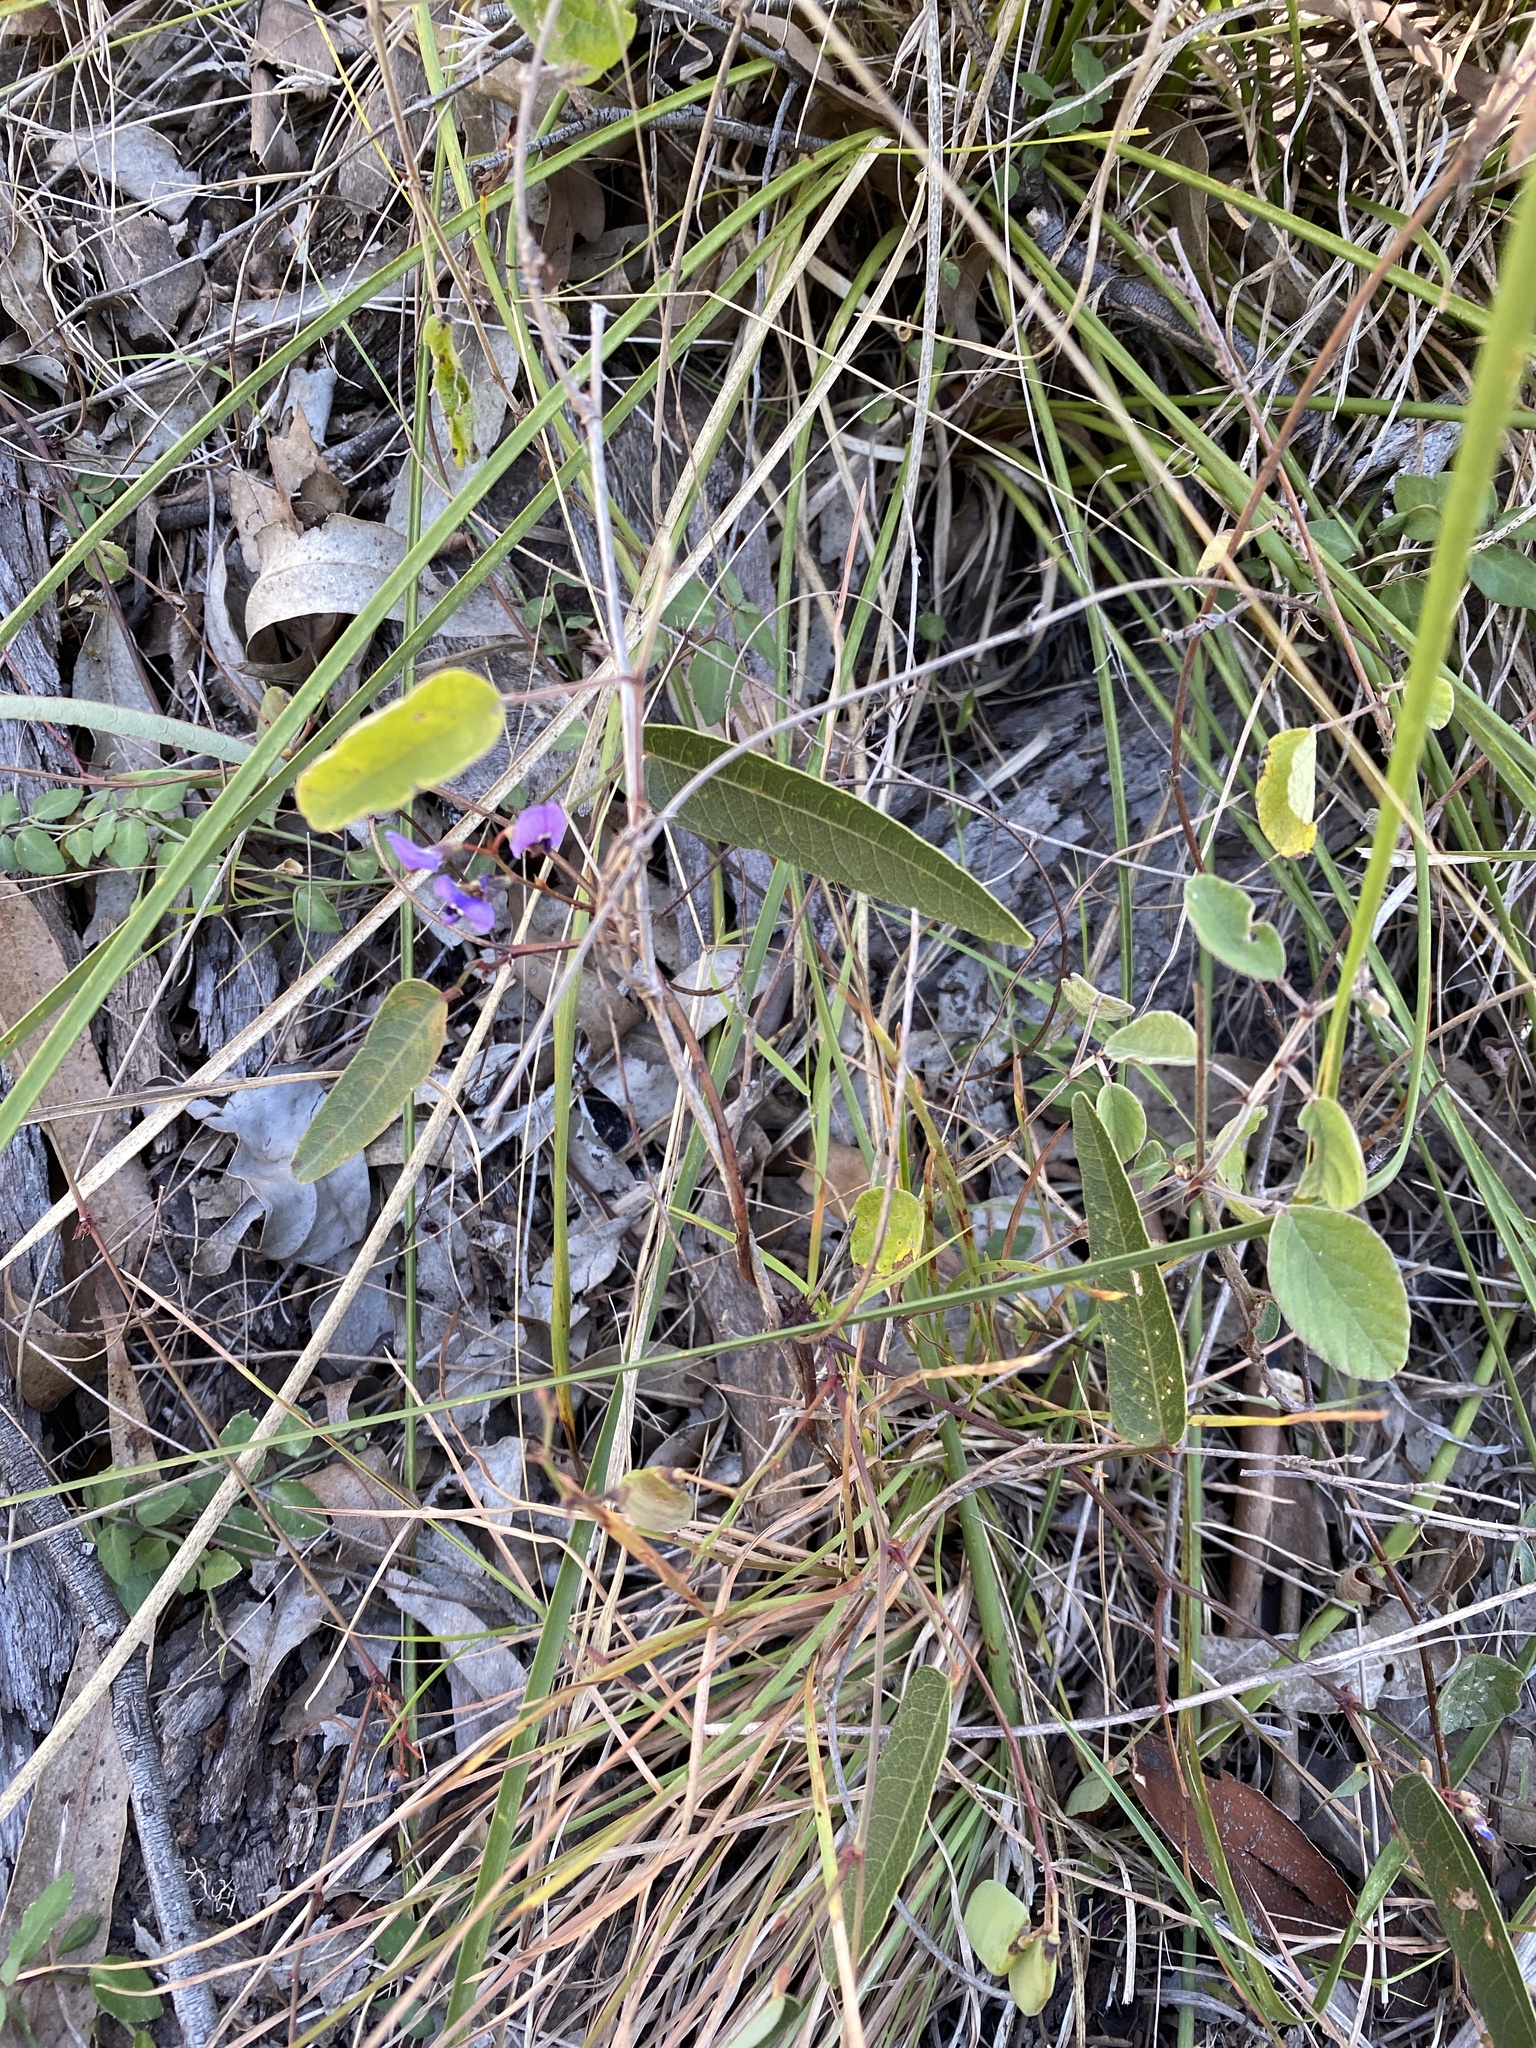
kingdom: Plantae
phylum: Tracheophyta
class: Magnoliopsida
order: Fabales
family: Fabaceae
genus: Hardenbergia
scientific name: Hardenbergia violacea
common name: Coral-pea
